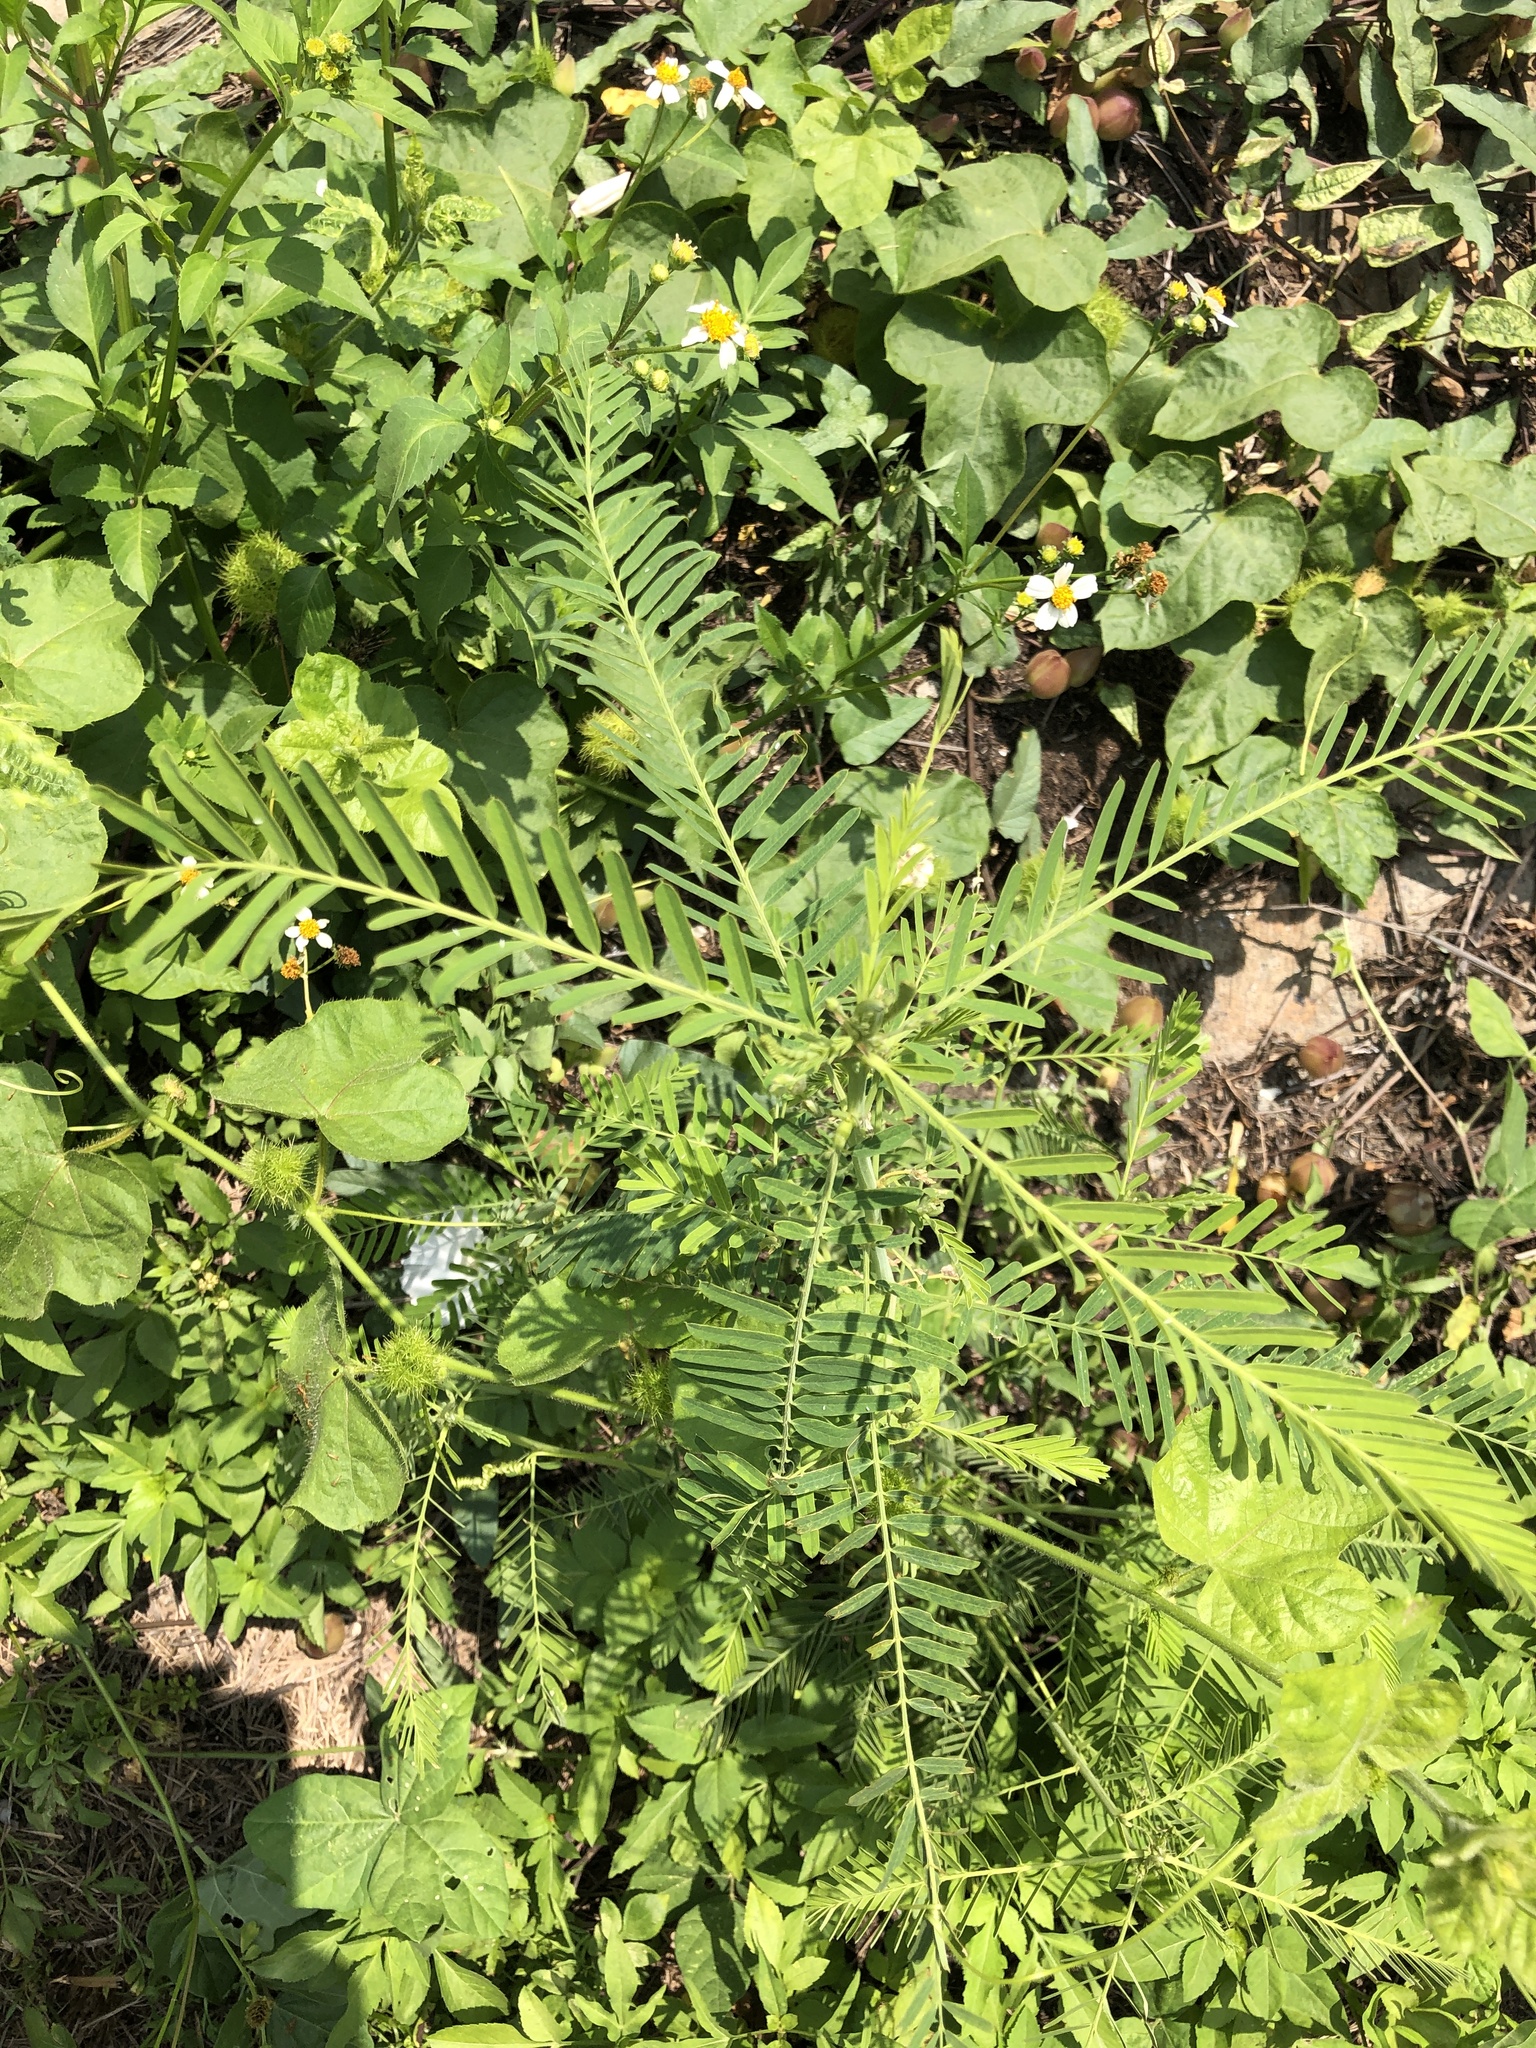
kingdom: Plantae
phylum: Tracheophyta
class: Magnoliopsida
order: Fabales
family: Fabaceae
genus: Sesbania
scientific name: Sesbania cannabina
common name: Canicha
